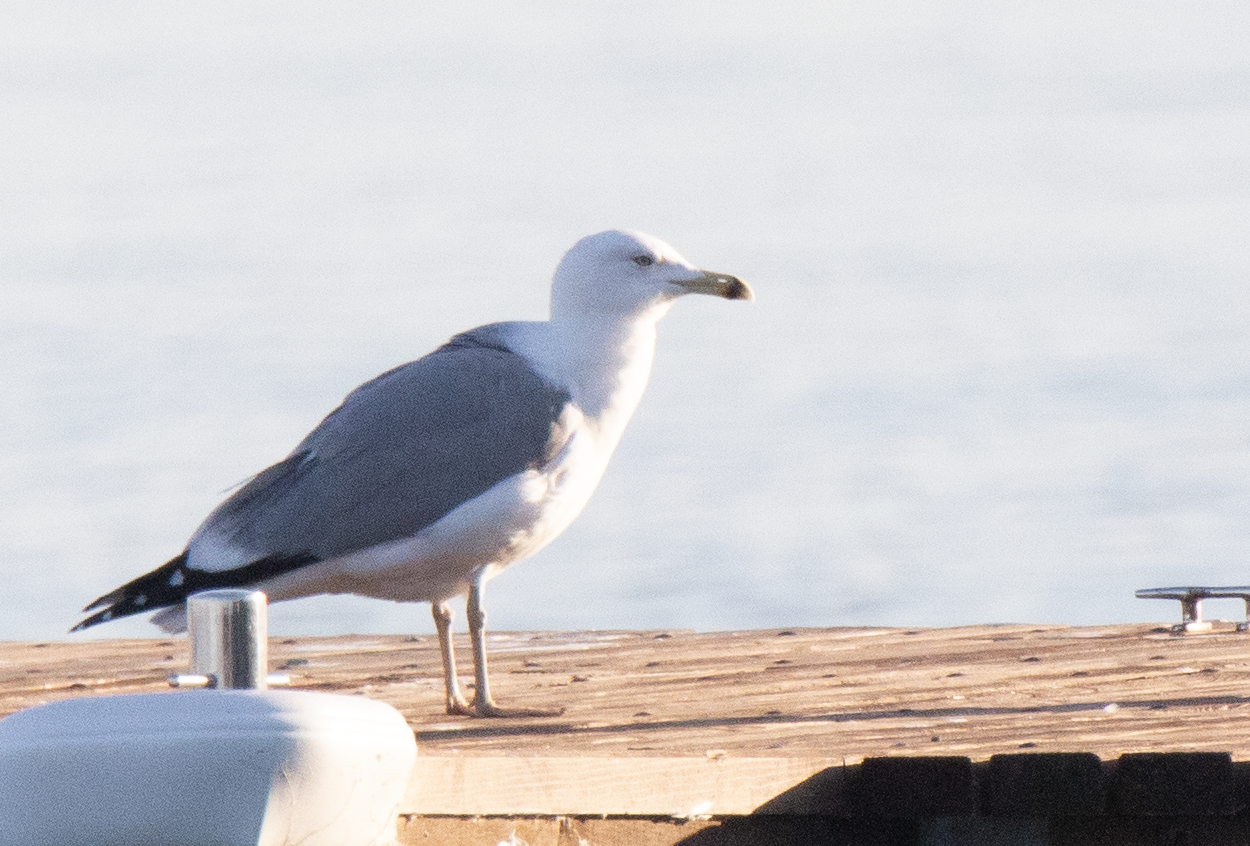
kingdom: Animalia
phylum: Chordata
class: Aves
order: Charadriiformes
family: Laridae
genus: Larus
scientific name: Larus michahellis
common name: Yellow-legged gull
